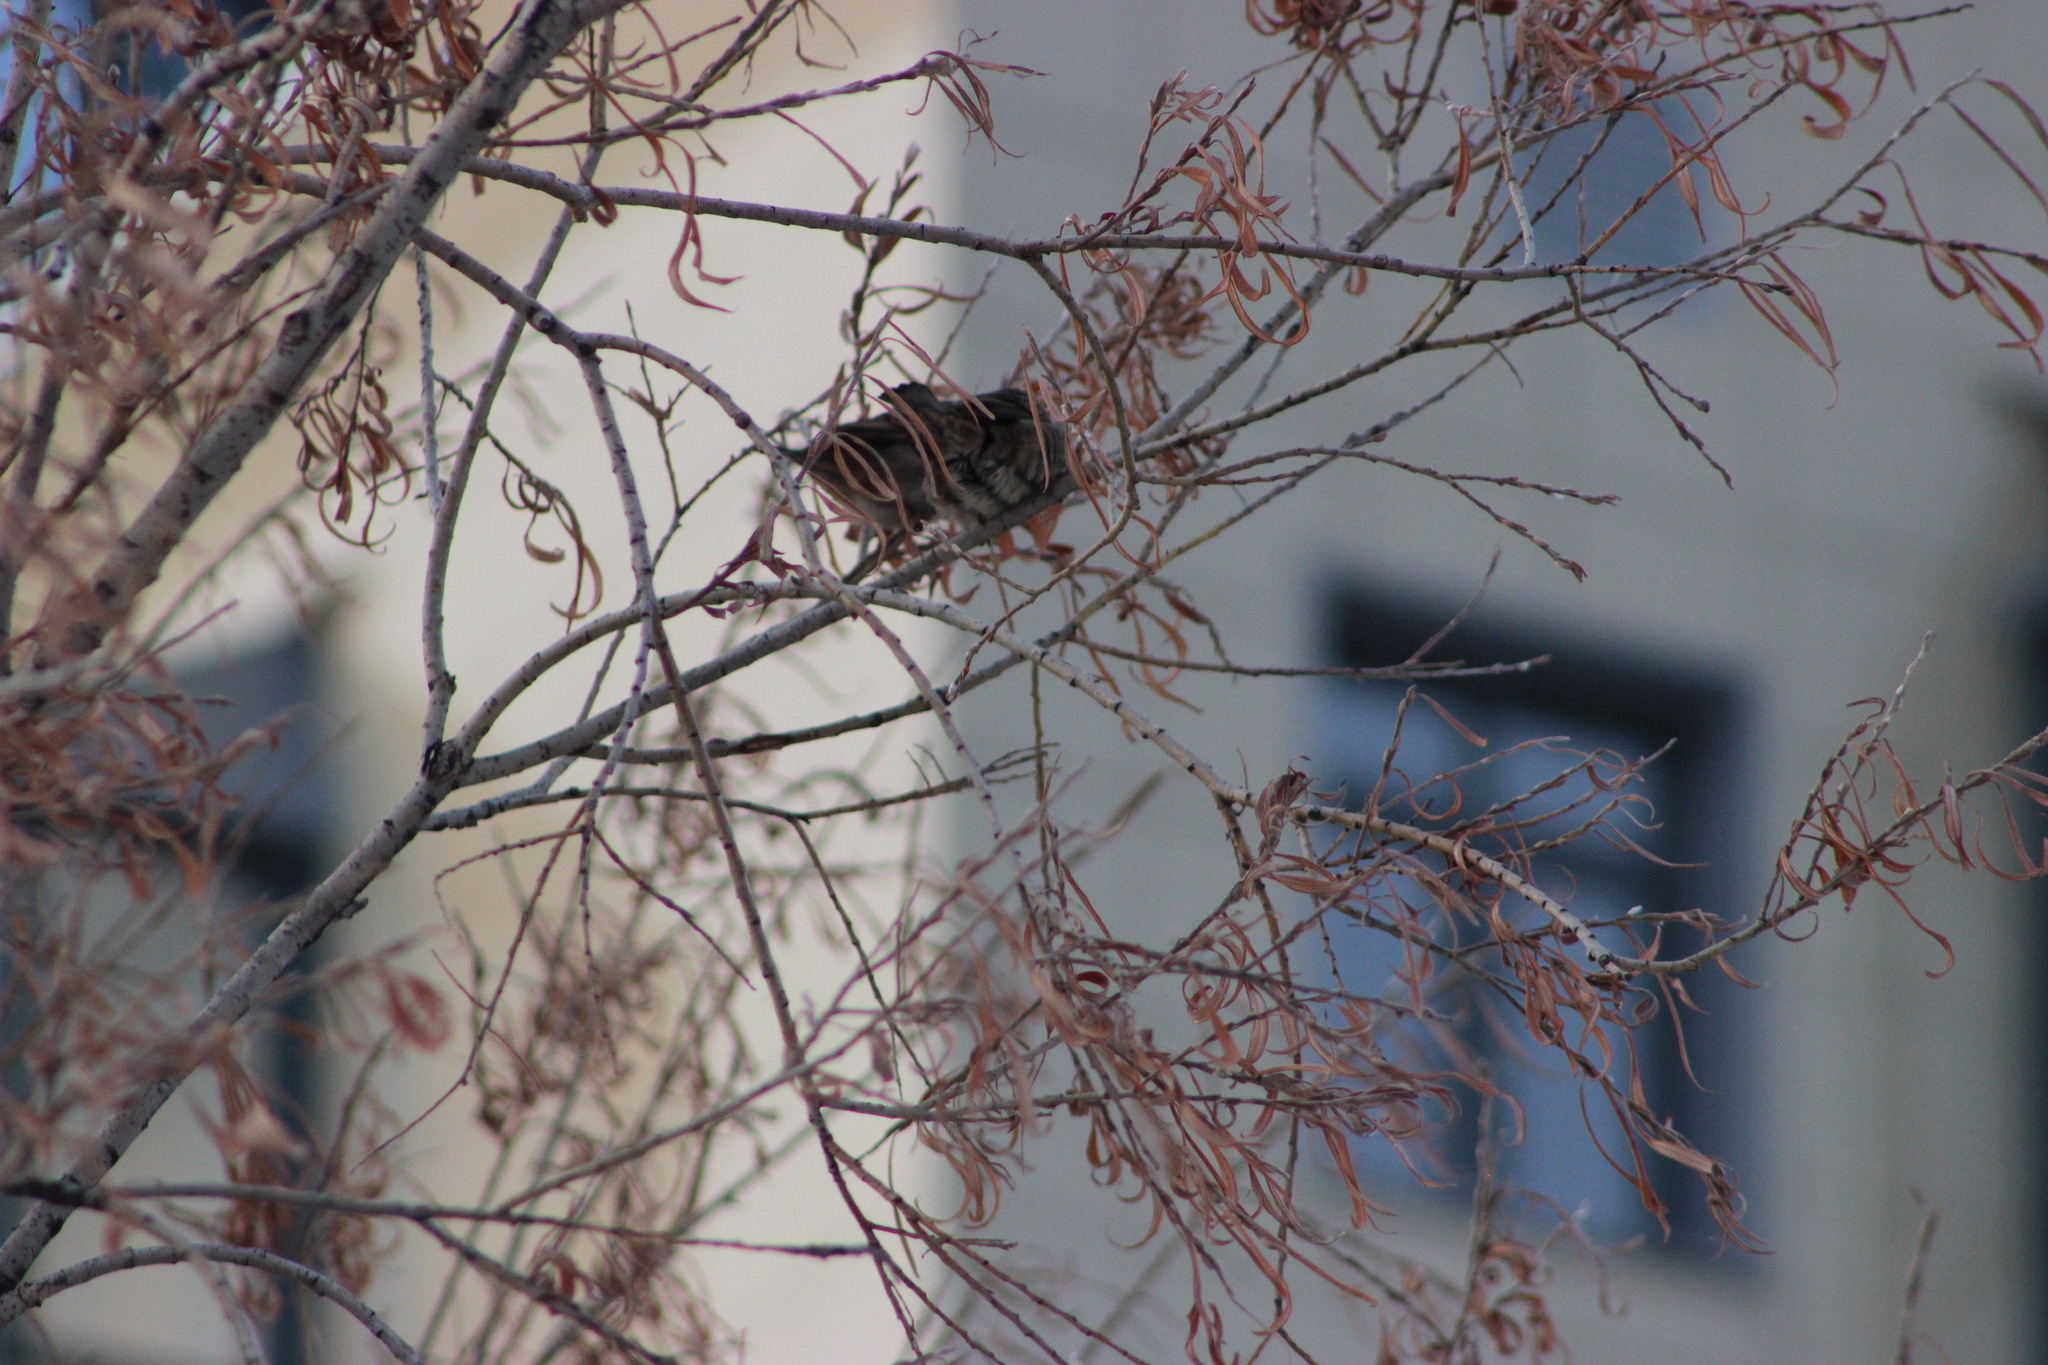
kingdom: Animalia
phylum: Chordata
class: Aves
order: Passeriformes
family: Passeridae
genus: Passer
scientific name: Passer domesticus
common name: House sparrow
